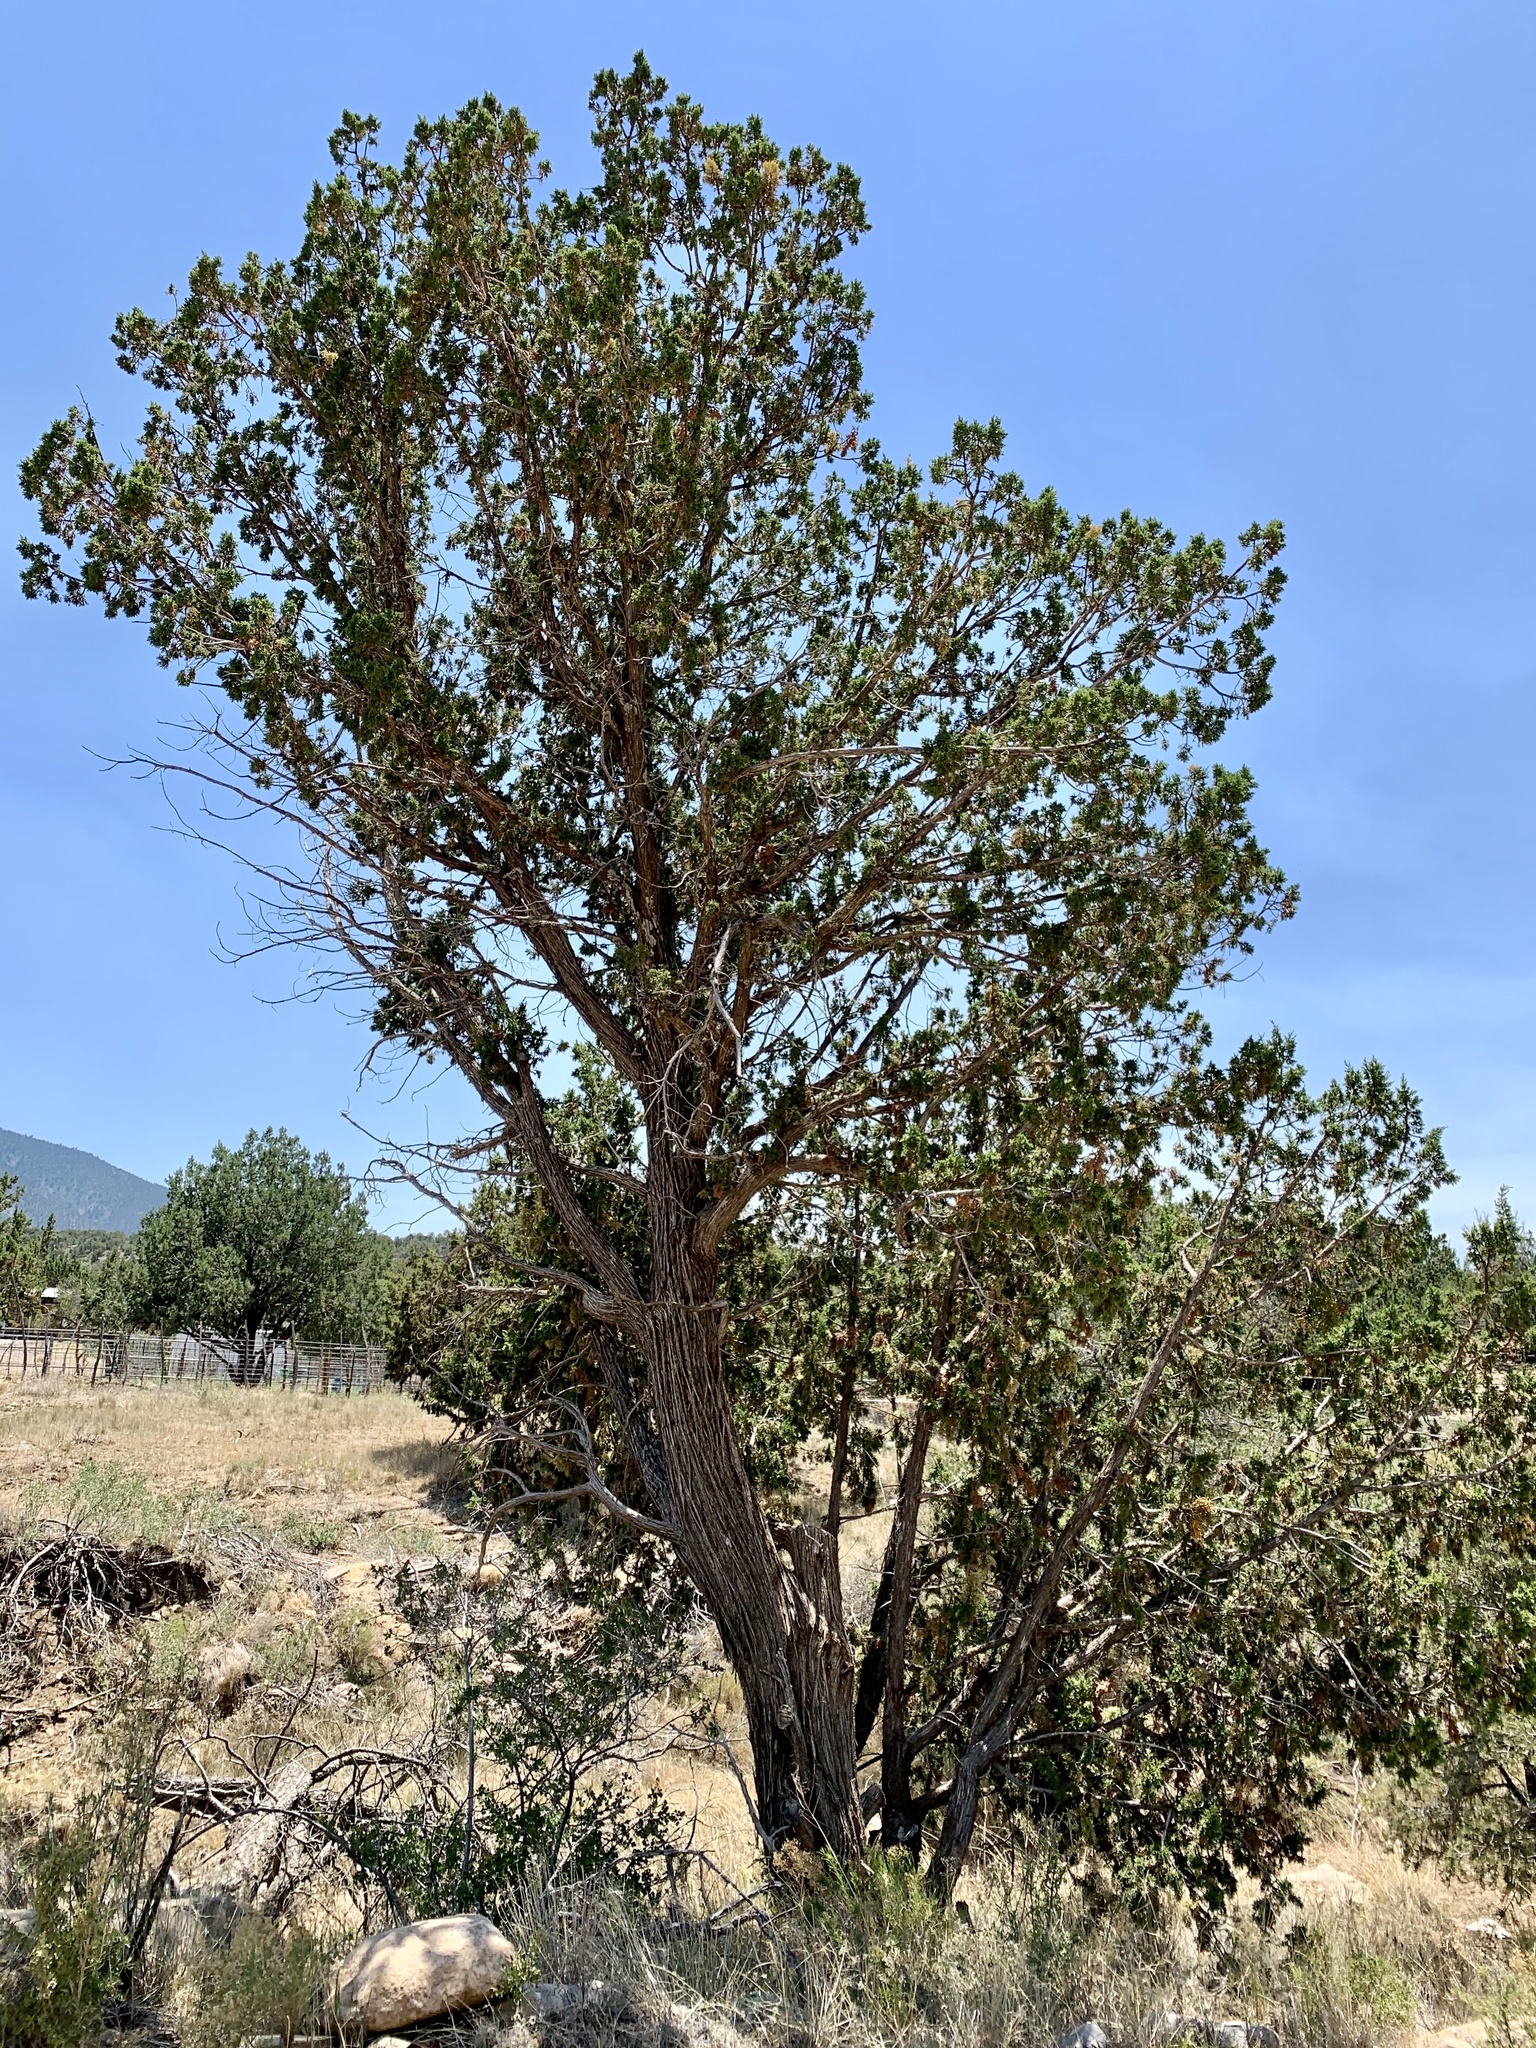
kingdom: Plantae
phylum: Tracheophyta
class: Pinopsida
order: Pinales
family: Cupressaceae
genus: Juniperus
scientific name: Juniperus monosperma
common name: One-seed juniper
